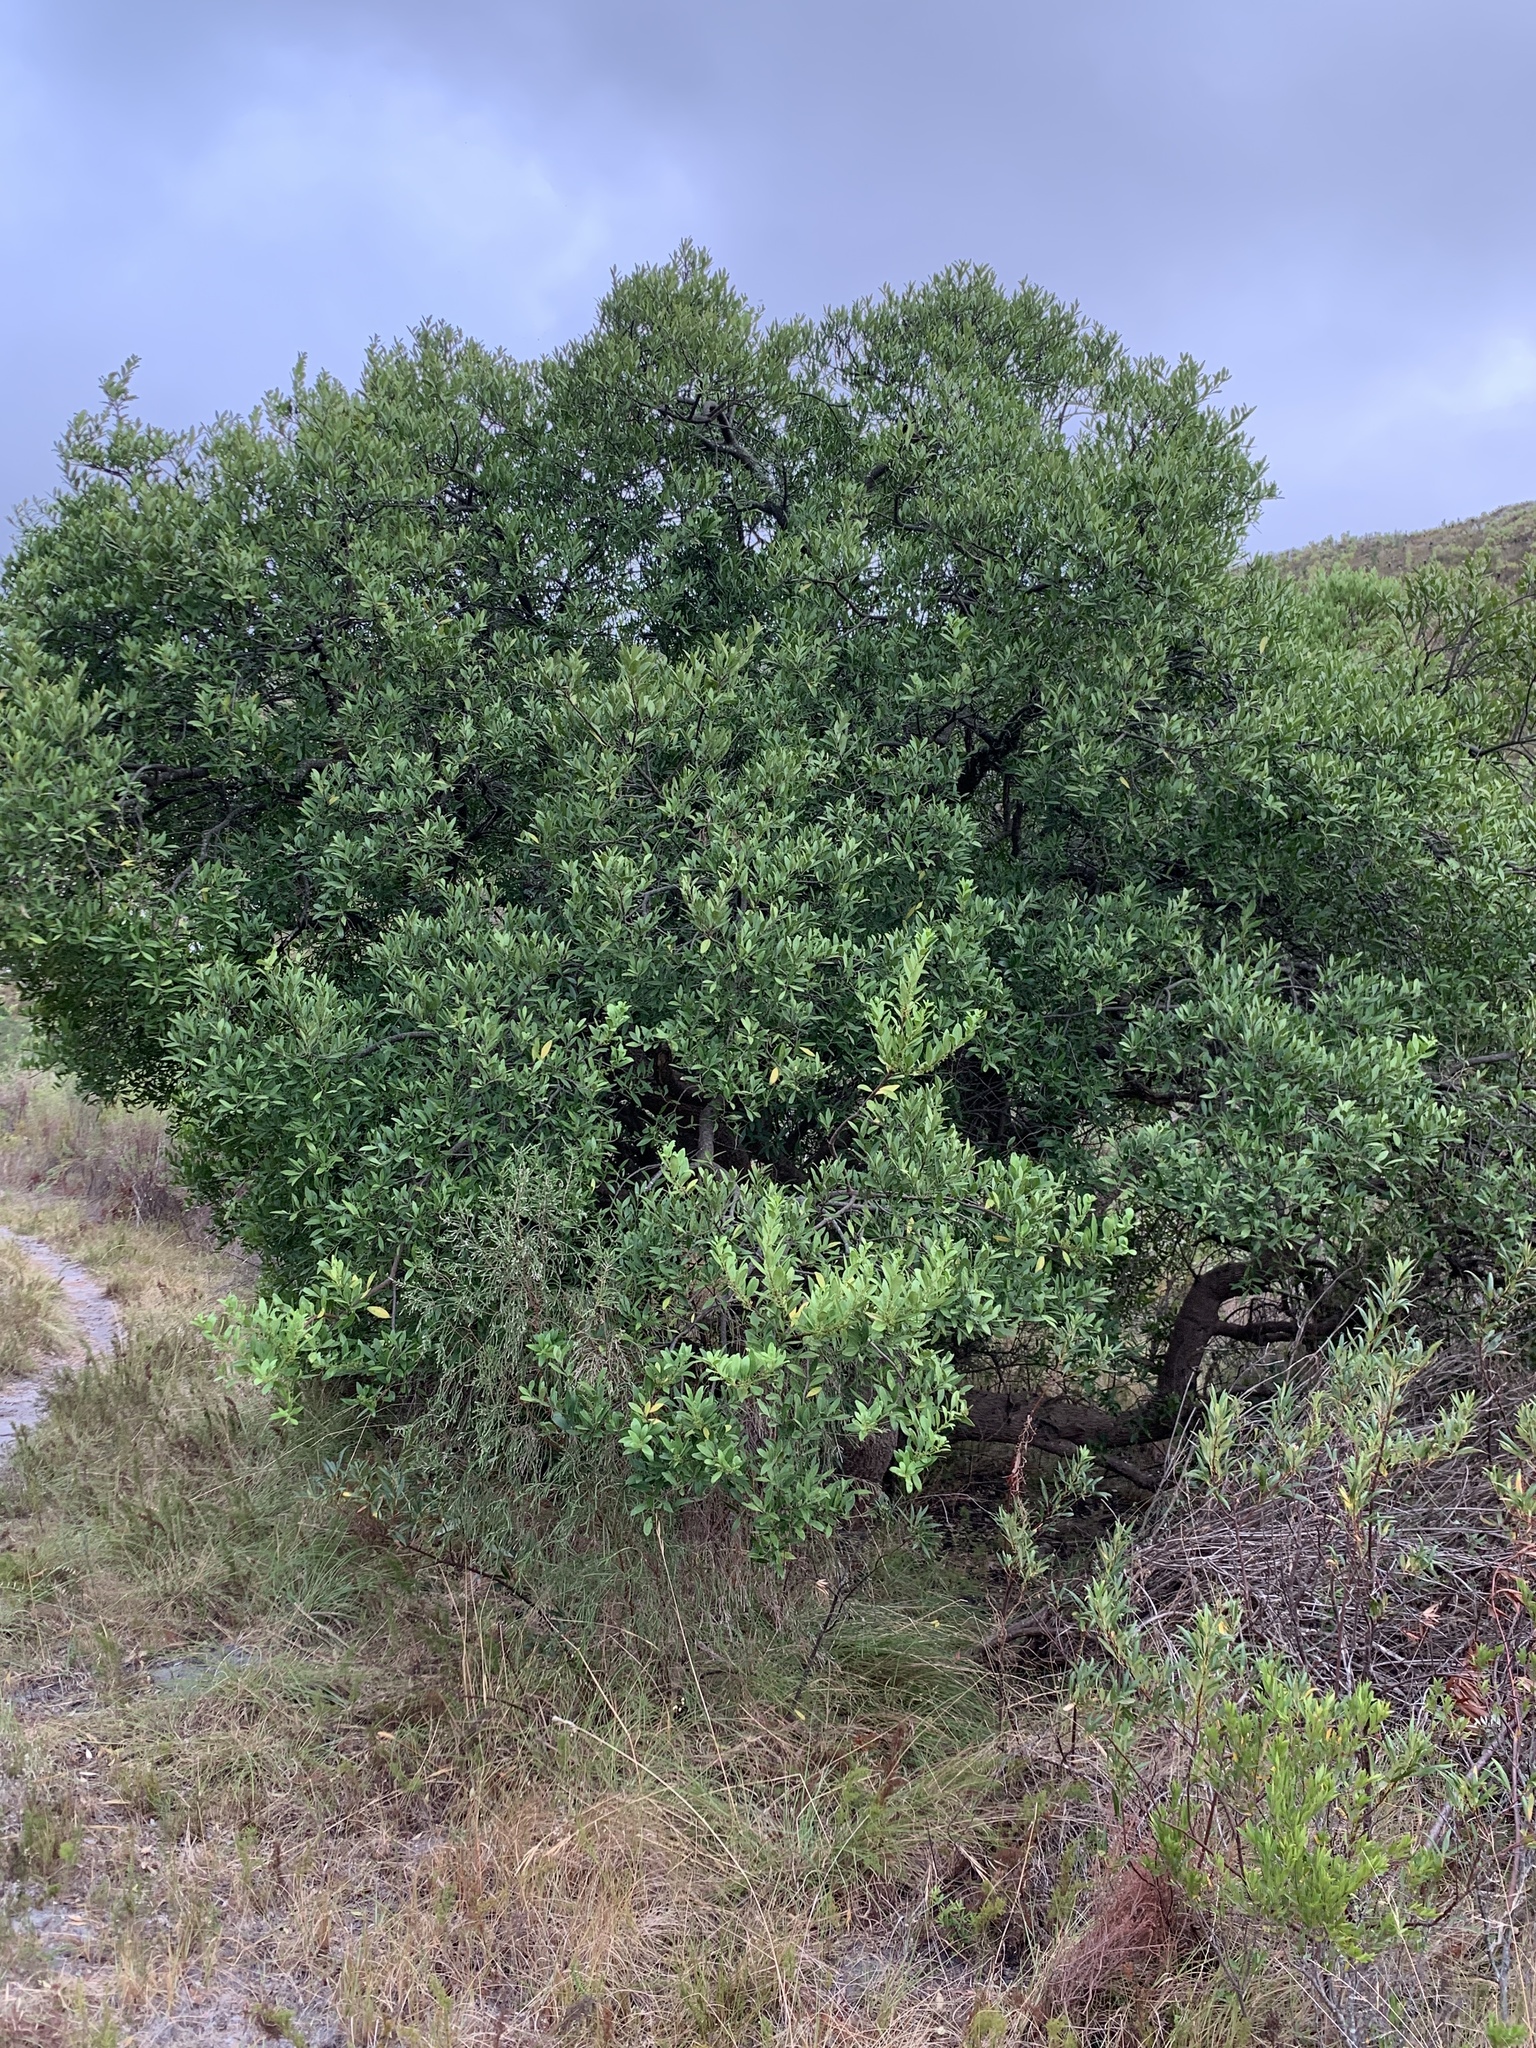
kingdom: Plantae
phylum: Tracheophyta
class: Magnoliopsida
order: Celastrales
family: Celastraceae
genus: Gymnosporia
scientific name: Gymnosporia laurina
